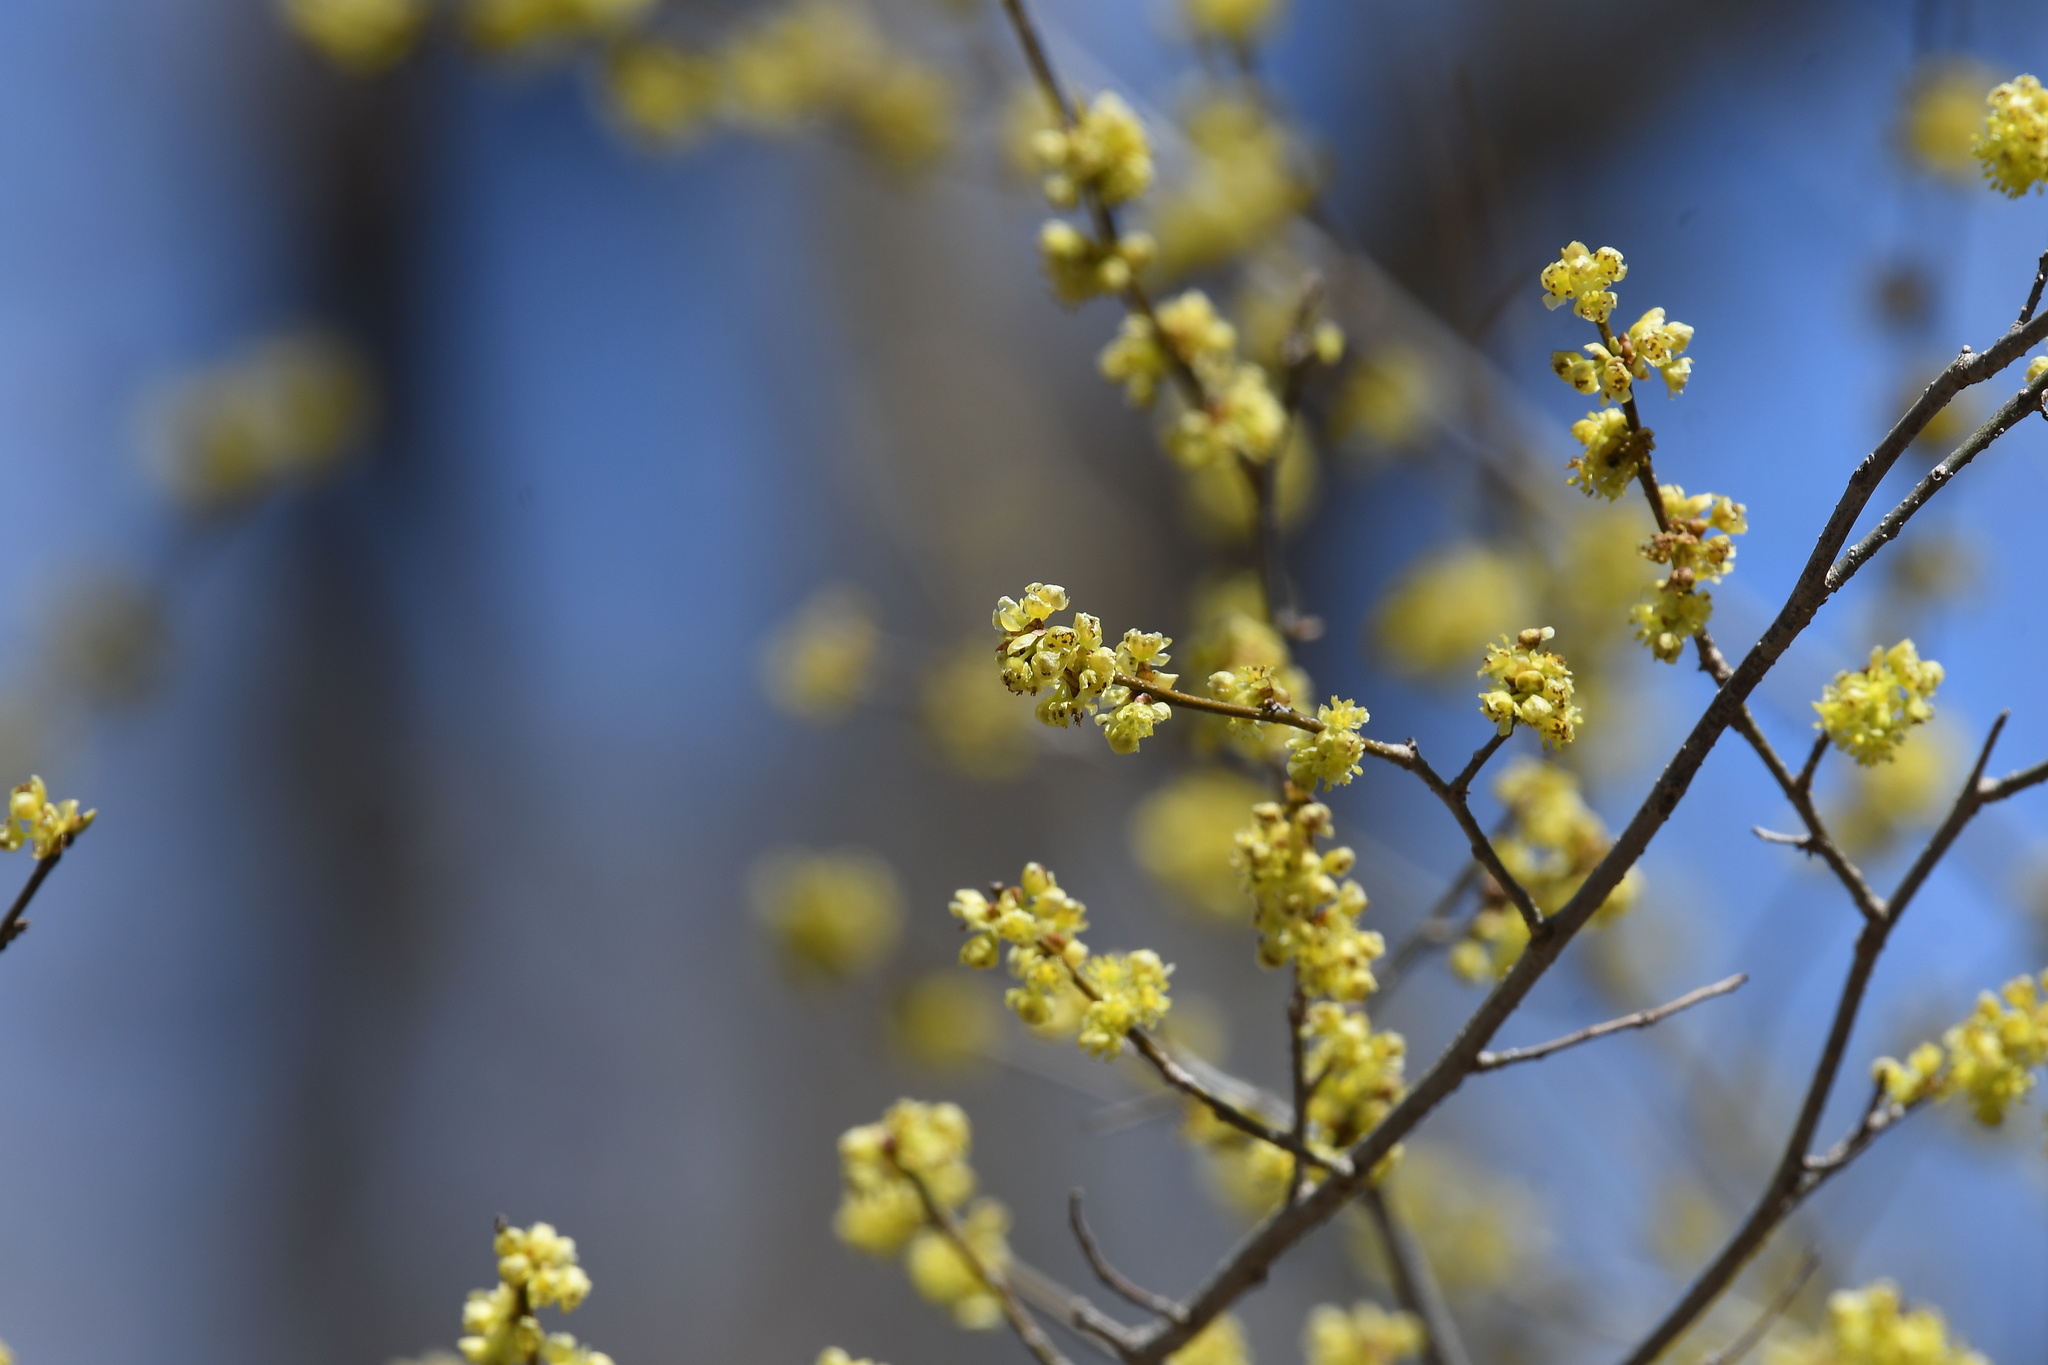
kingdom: Plantae
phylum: Tracheophyta
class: Magnoliopsida
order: Laurales
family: Lauraceae
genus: Lindera
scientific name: Lindera benzoin
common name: Spicebush
